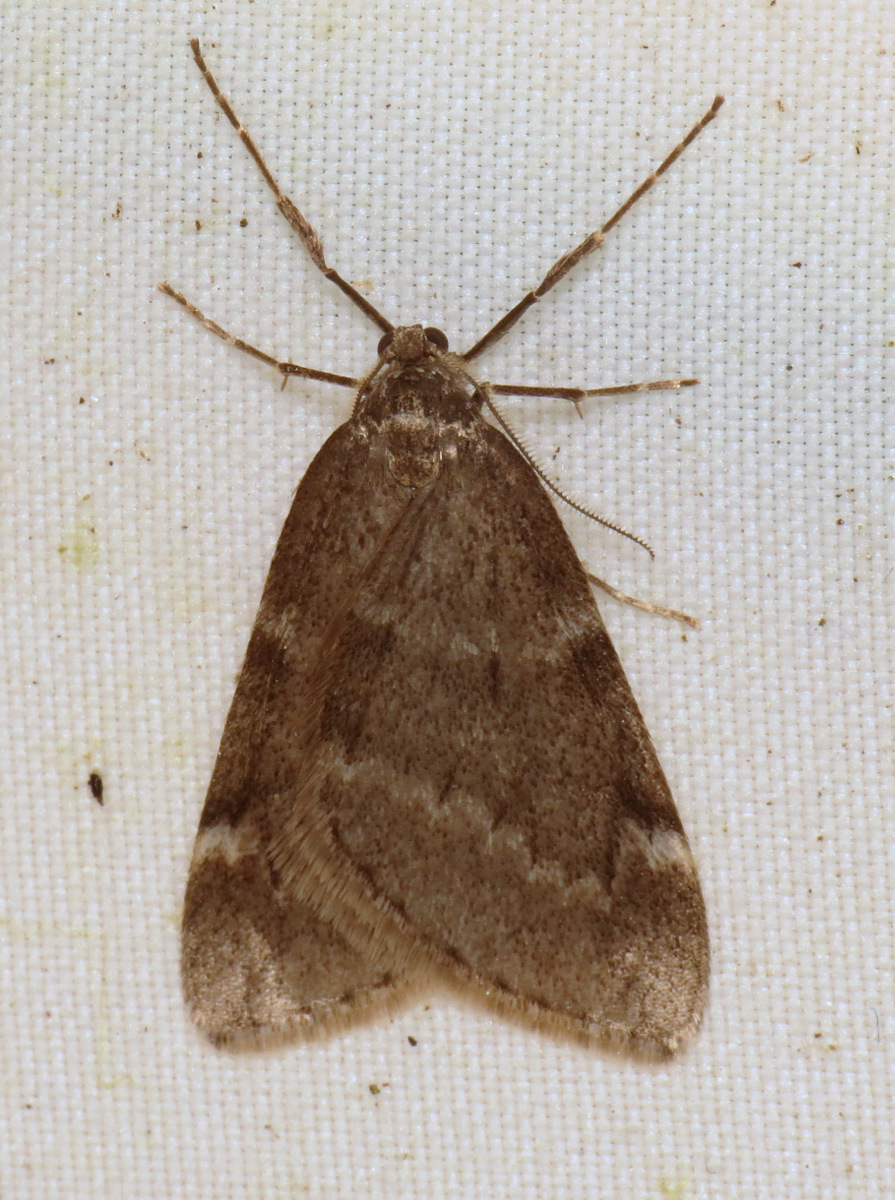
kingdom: Animalia
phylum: Arthropoda
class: Insecta
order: Lepidoptera
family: Geometridae
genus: Alsophila
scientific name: Alsophila pometaria
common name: Fall cankerworm
